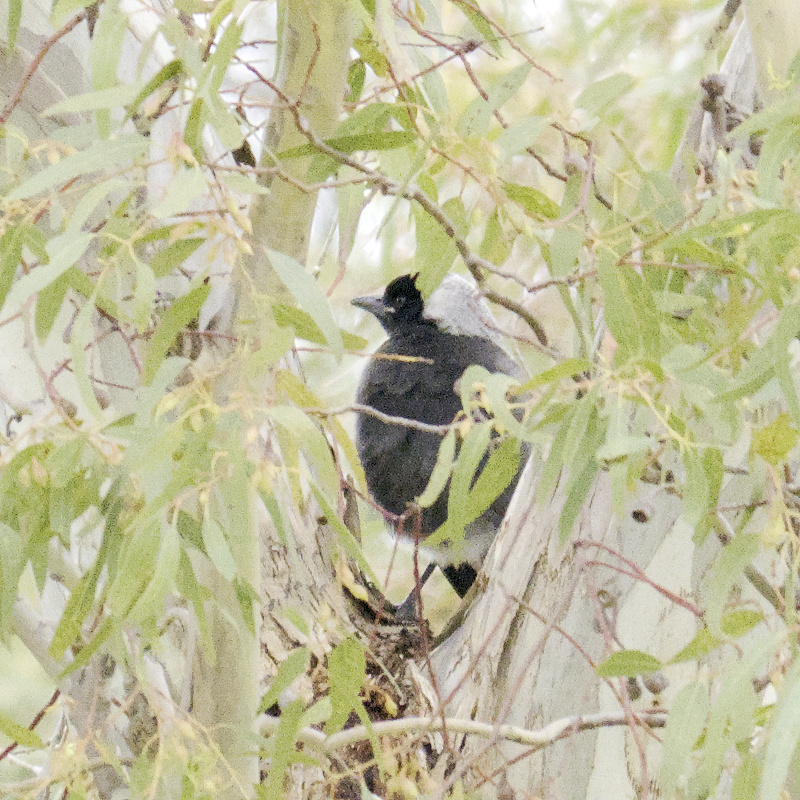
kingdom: Animalia
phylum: Chordata
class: Aves
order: Passeriformes
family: Cracticidae
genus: Gymnorhina
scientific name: Gymnorhina tibicen
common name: Australian magpie
